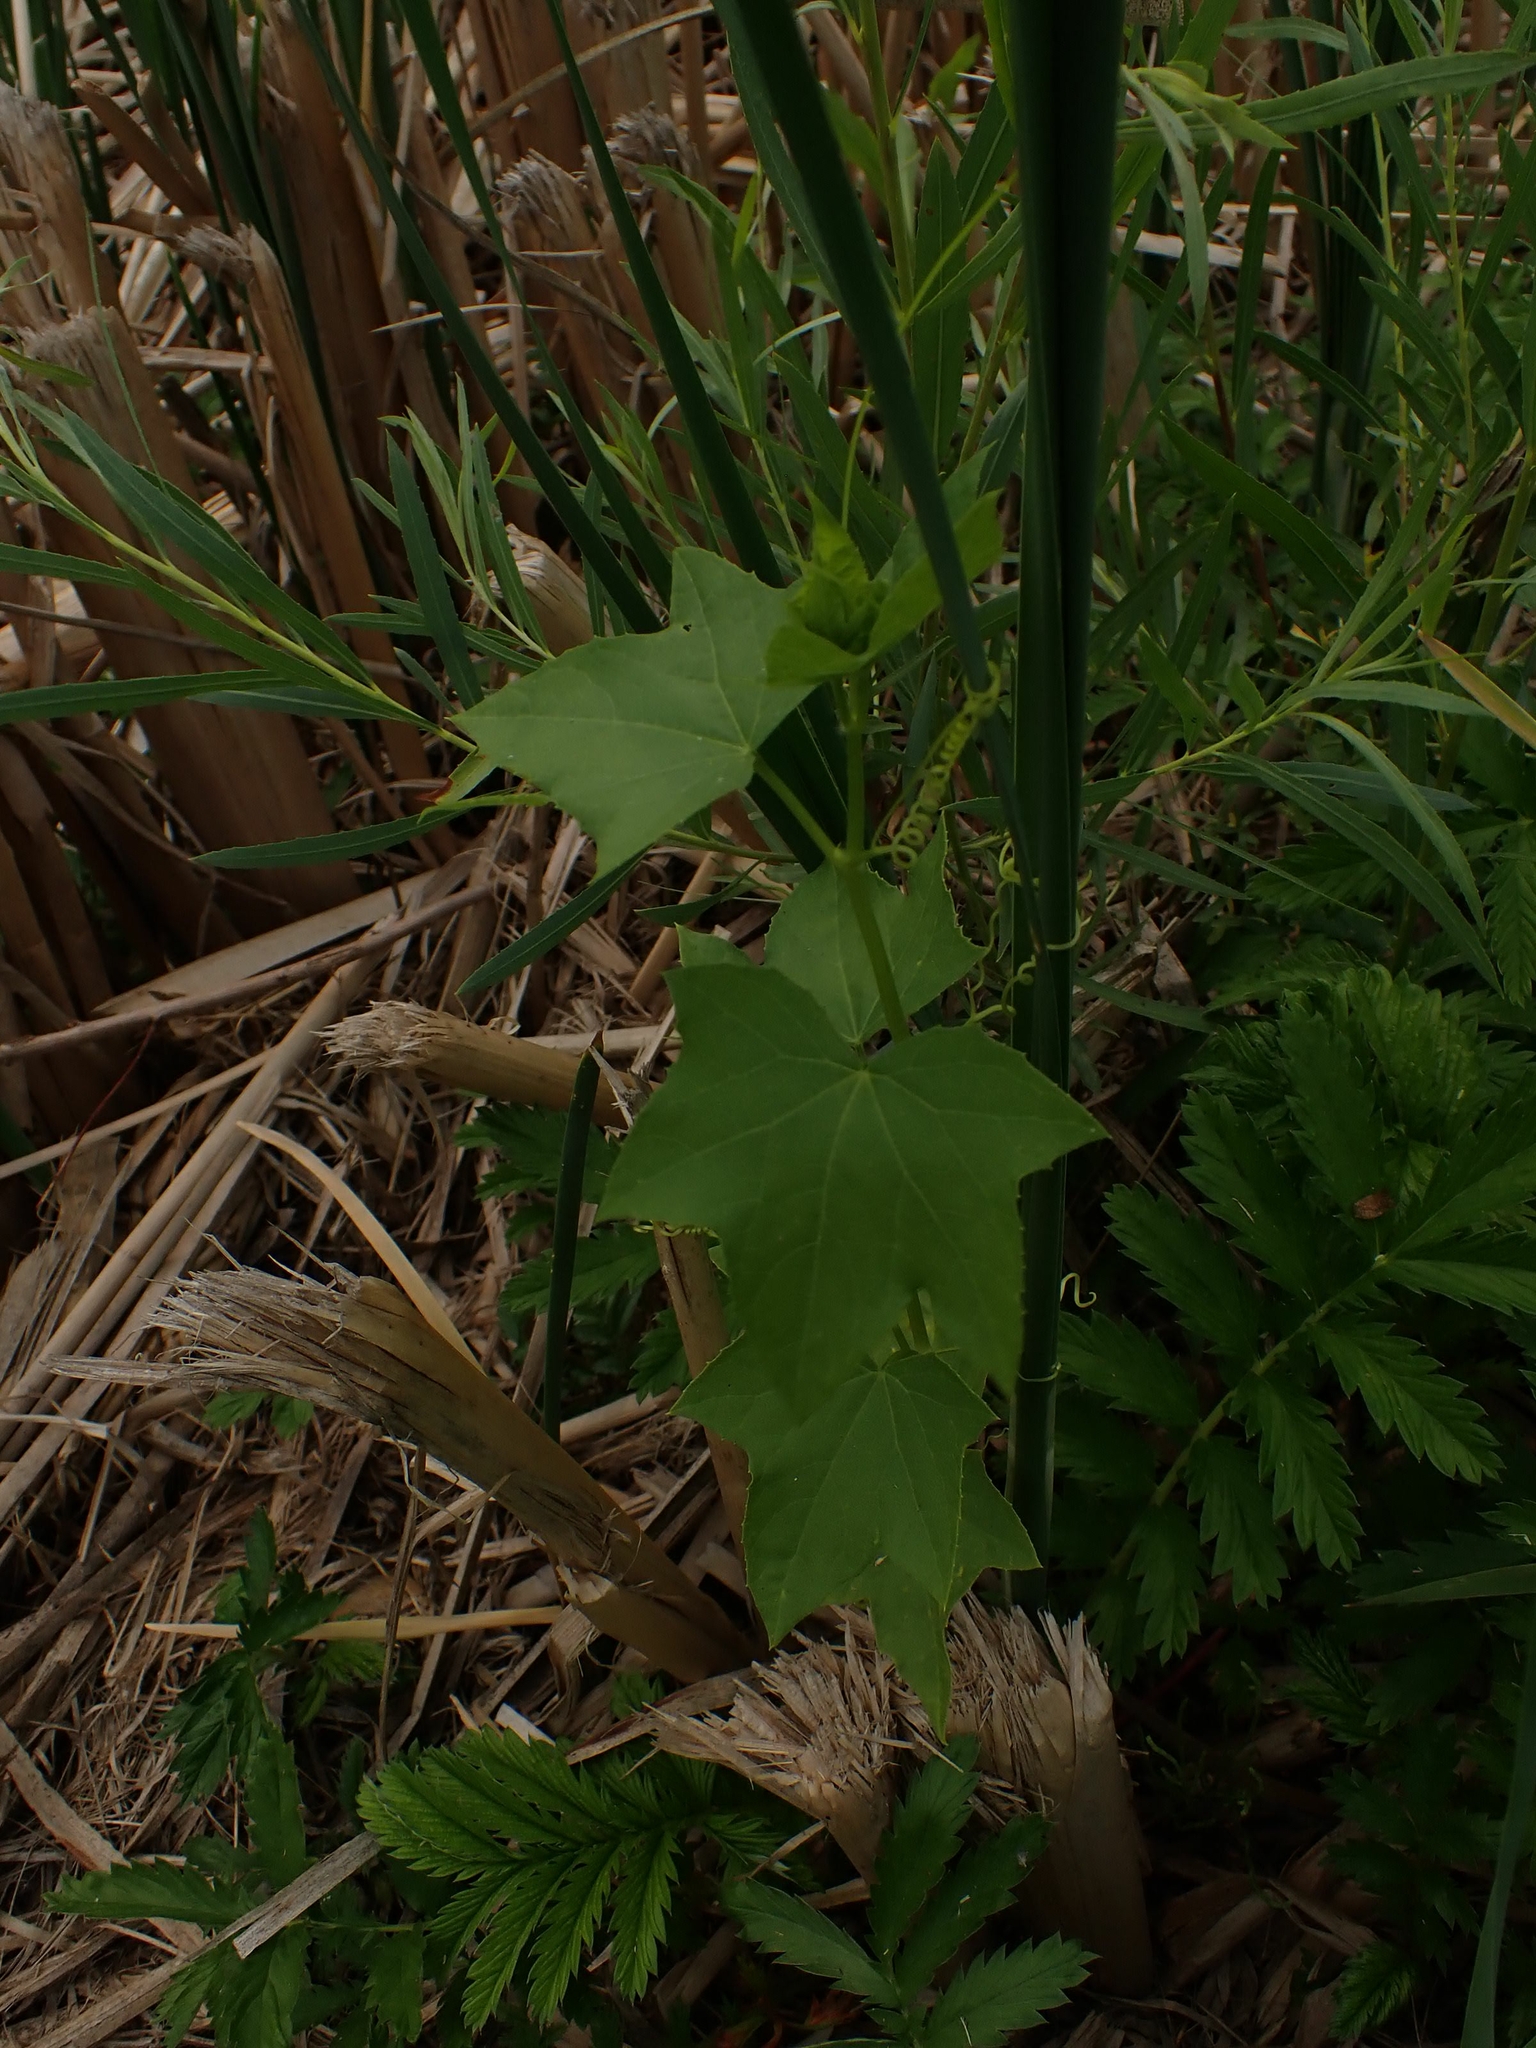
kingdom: Plantae
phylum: Tracheophyta
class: Magnoliopsida
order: Cucurbitales
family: Cucurbitaceae
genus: Echinocystis
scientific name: Echinocystis lobata
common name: Wild cucumber
